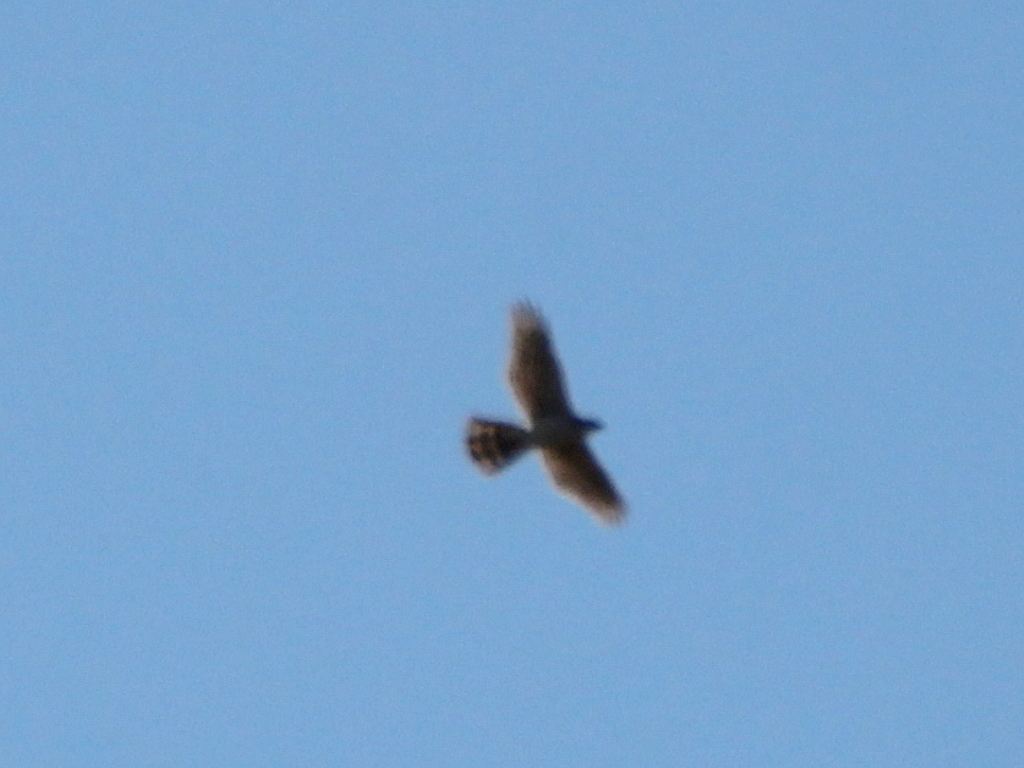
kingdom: Animalia
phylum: Chordata
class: Aves
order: Accipitriformes
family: Accipitridae
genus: Accipiter
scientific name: Accipiter gentilis
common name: Northern goshawk
